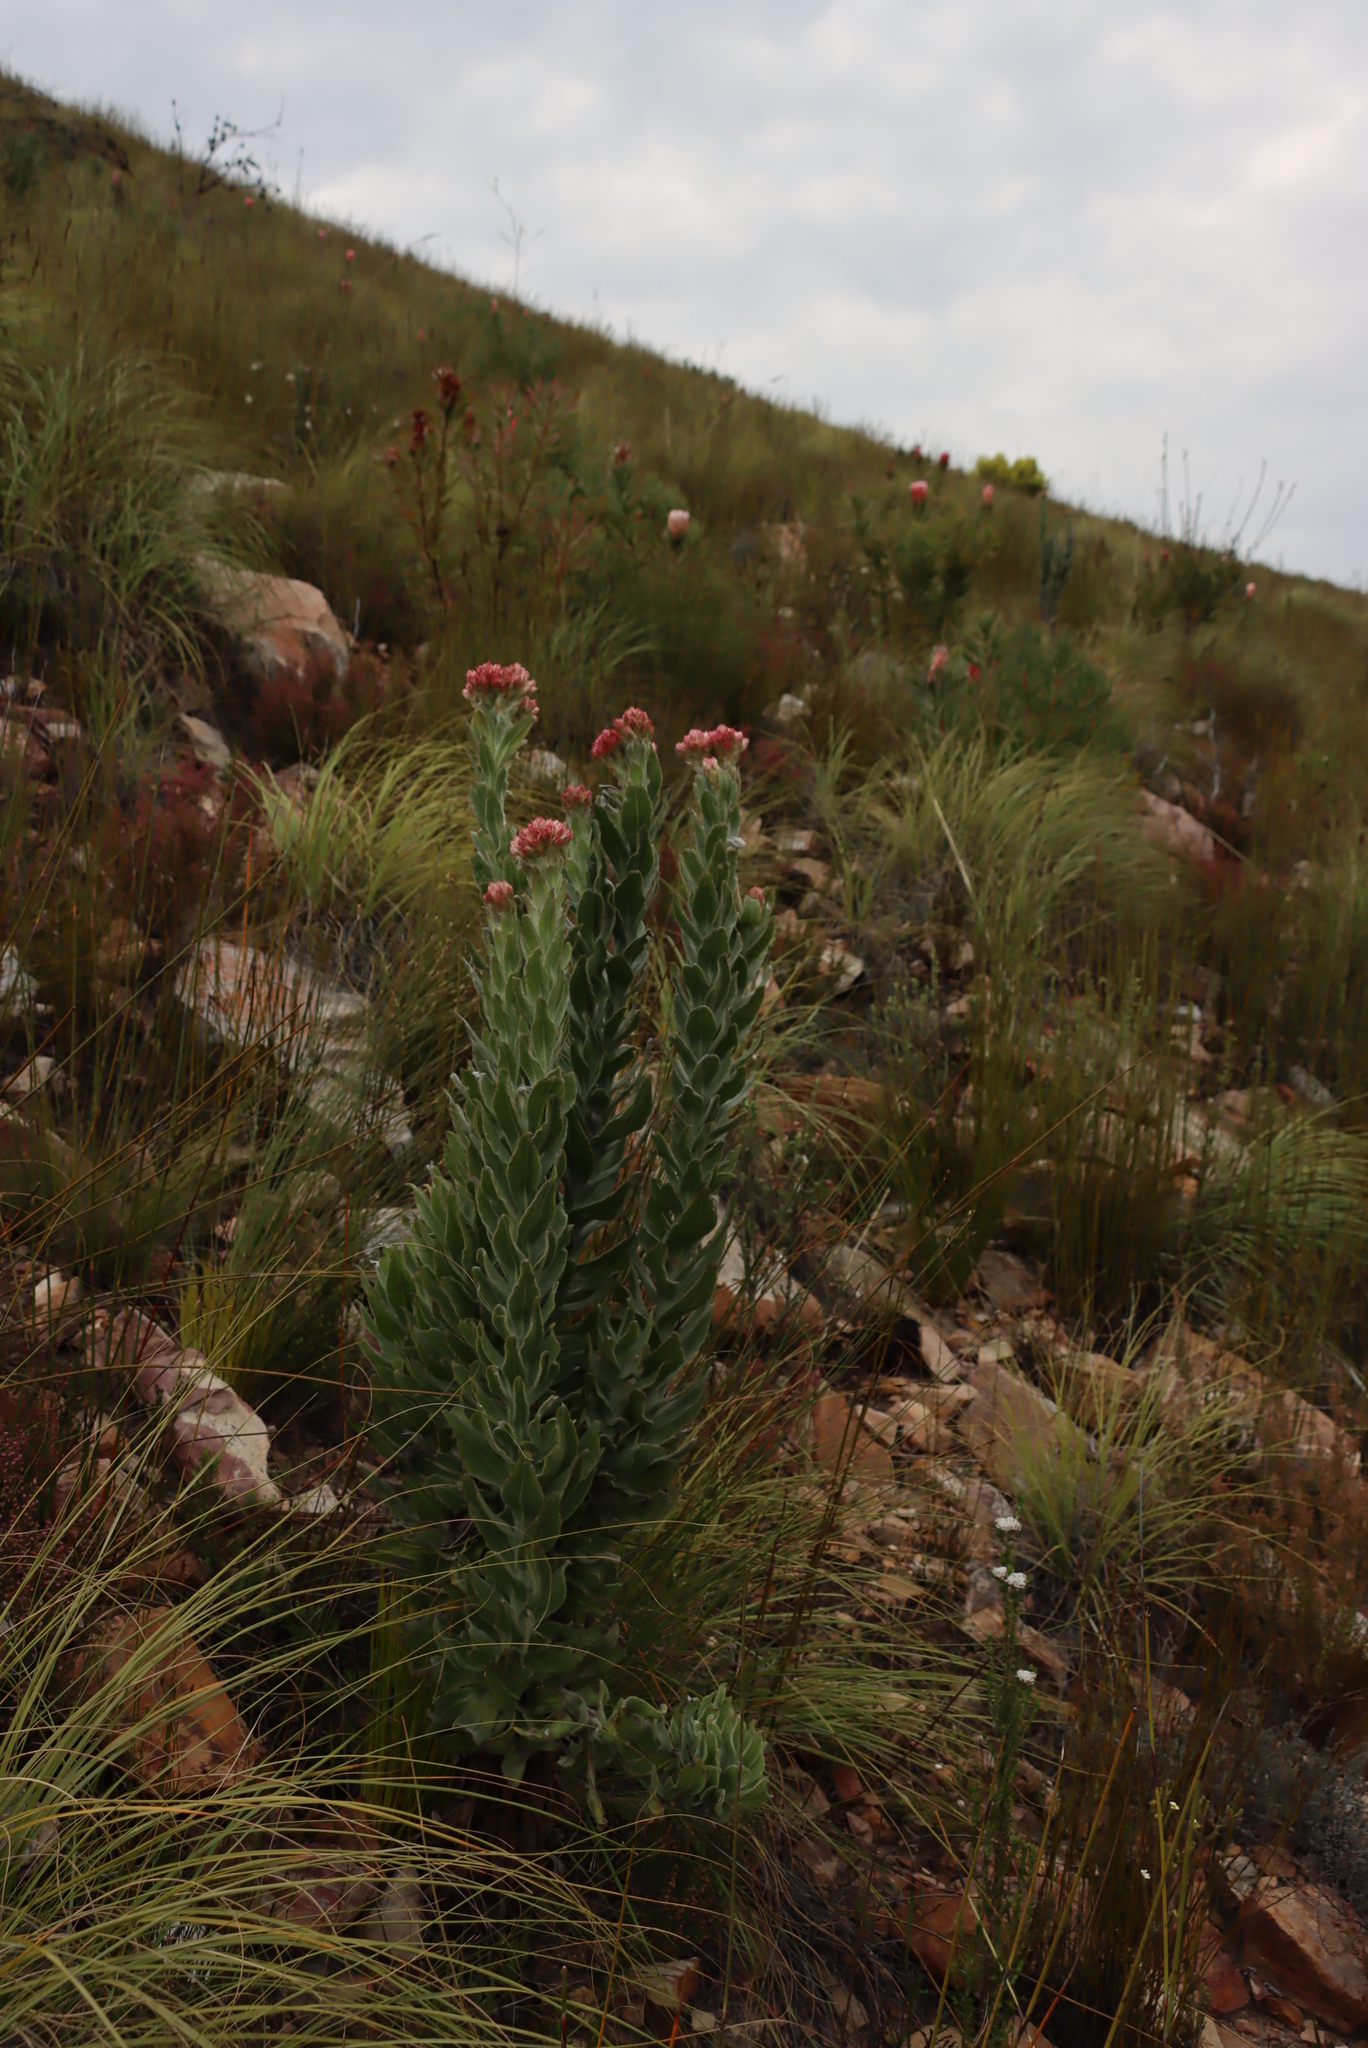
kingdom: Plantae
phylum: Tracheophyta
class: Magnoliopsida
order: Asterales
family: Asteraceae
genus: Syncarpha
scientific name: Syncarpha milleflora
